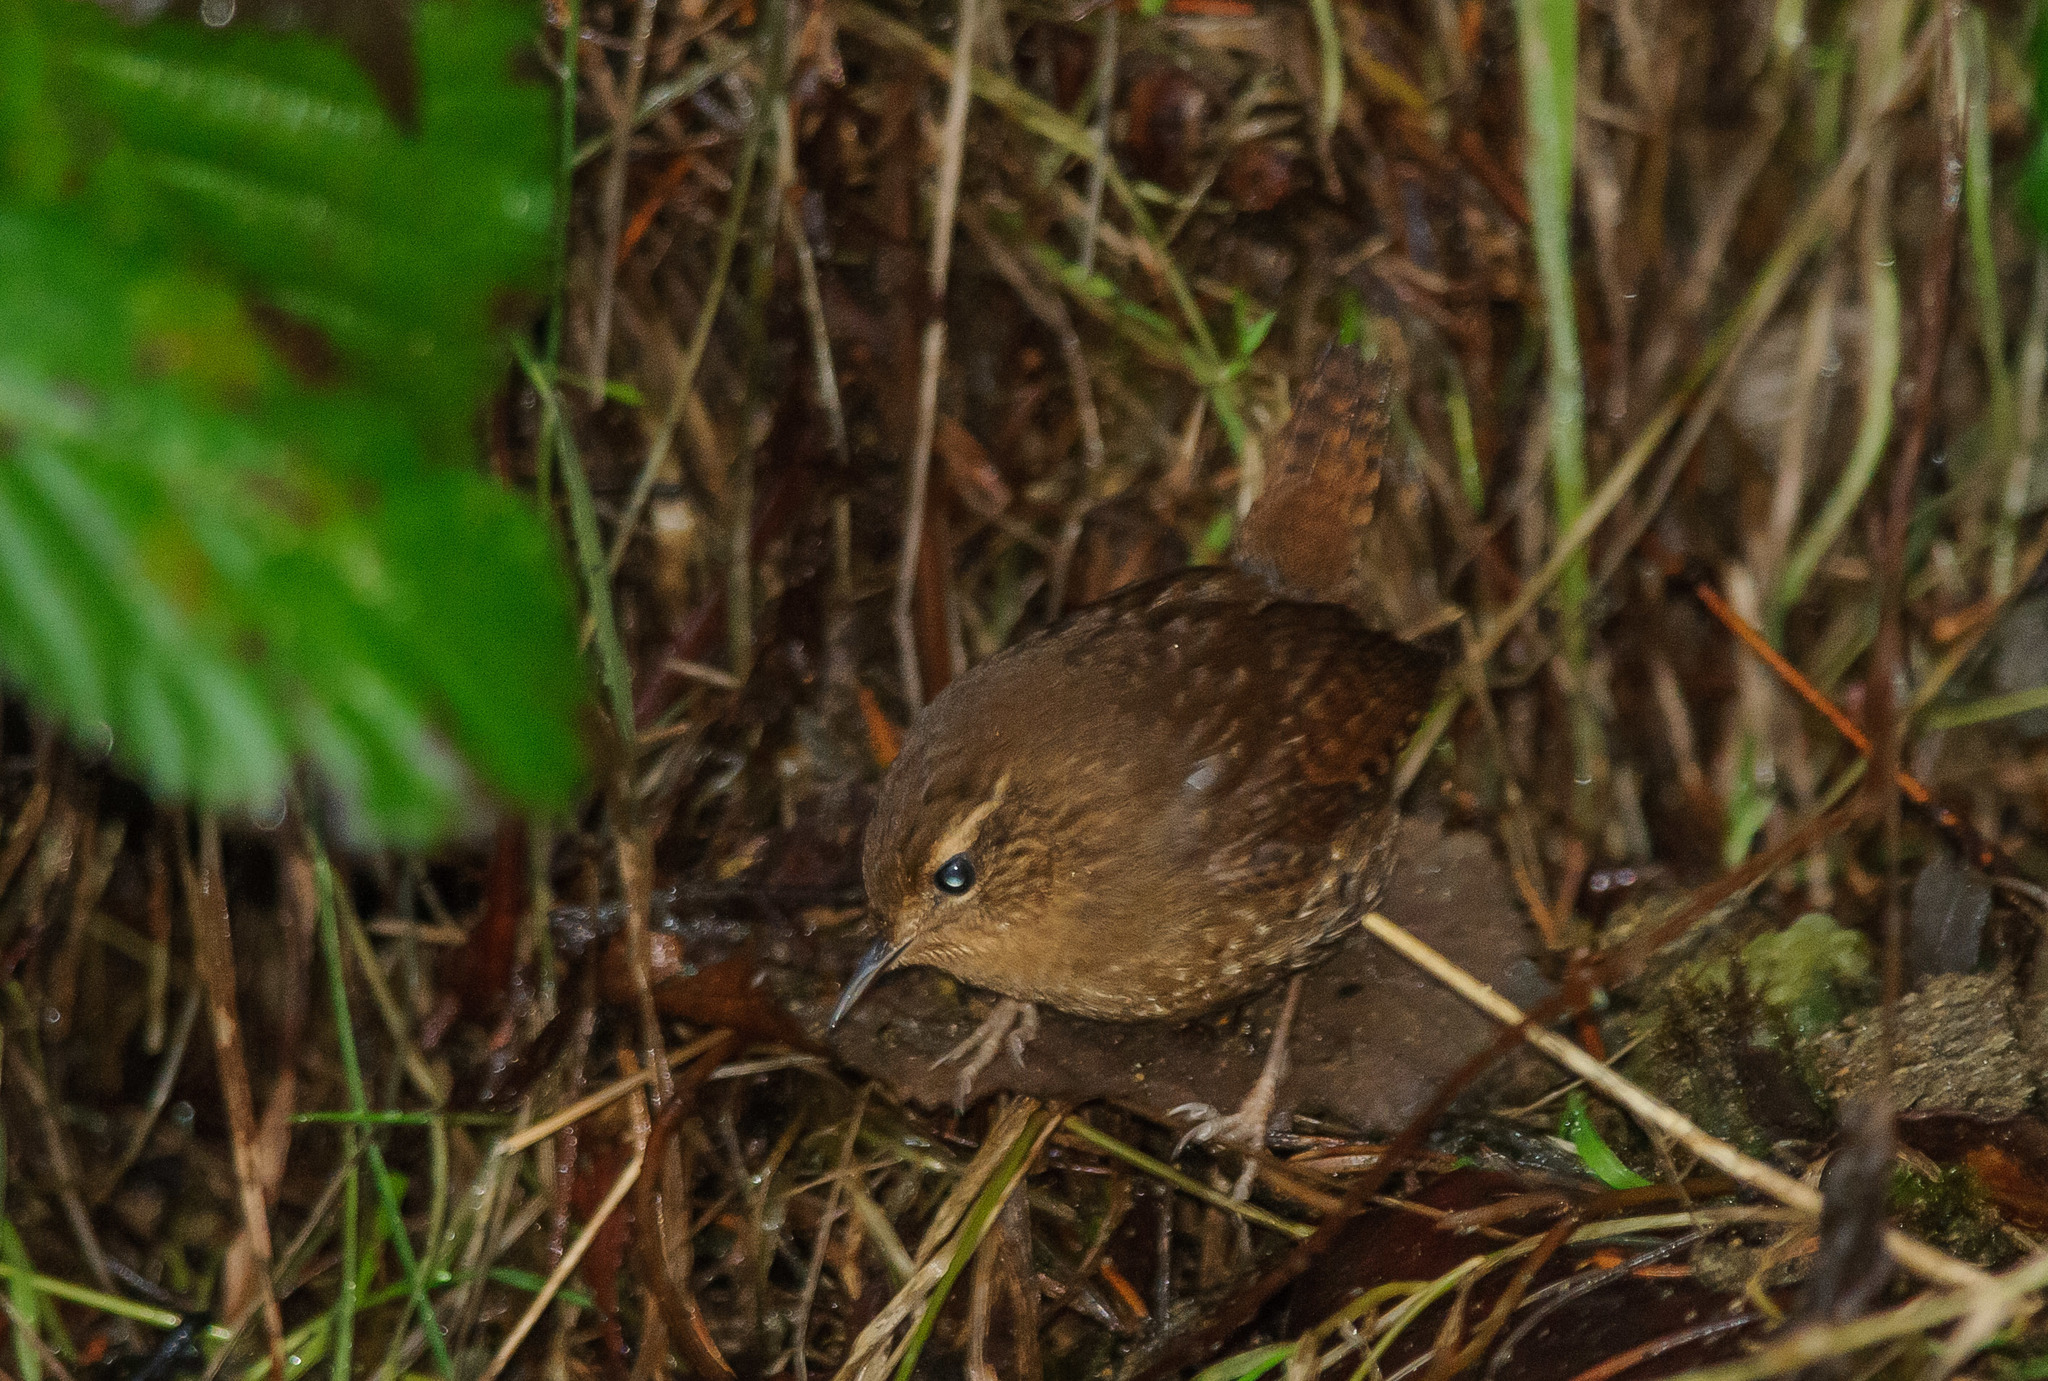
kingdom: Animalia
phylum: Chordata
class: Aves
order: Passeriformes
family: Troglodytidae
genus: Troglodytes
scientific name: Troglodytes pacificus
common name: Pacific wren
